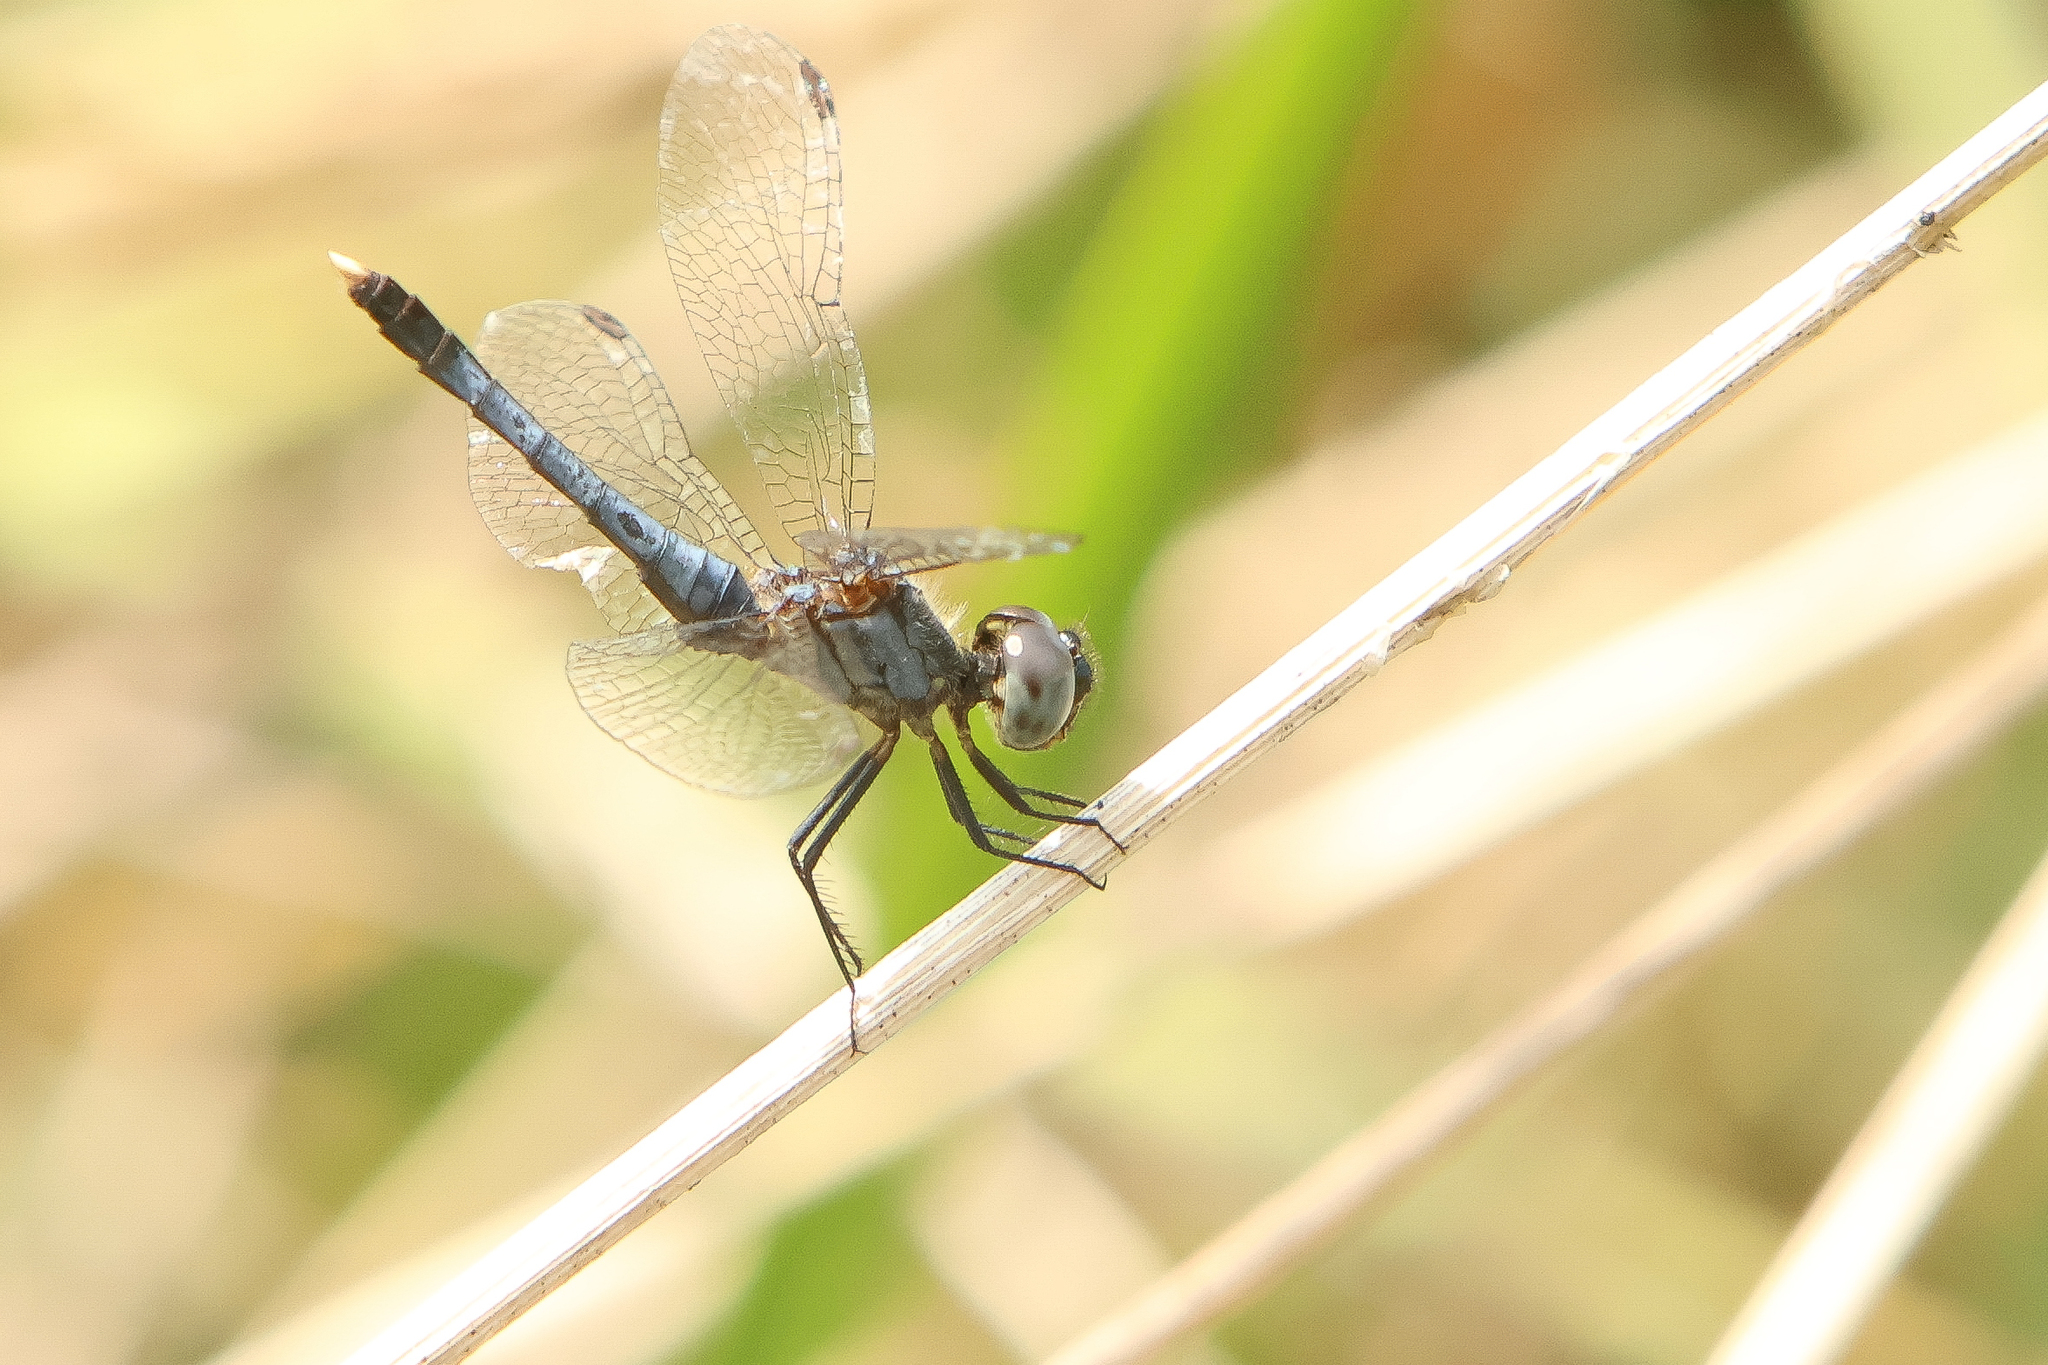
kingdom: Animalia
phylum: Arthropoda
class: Insecta
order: Odonata
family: Libellulidae
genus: Erythrodiplax
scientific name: Erythrodiplax minuscula
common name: Little blue dragonlet
